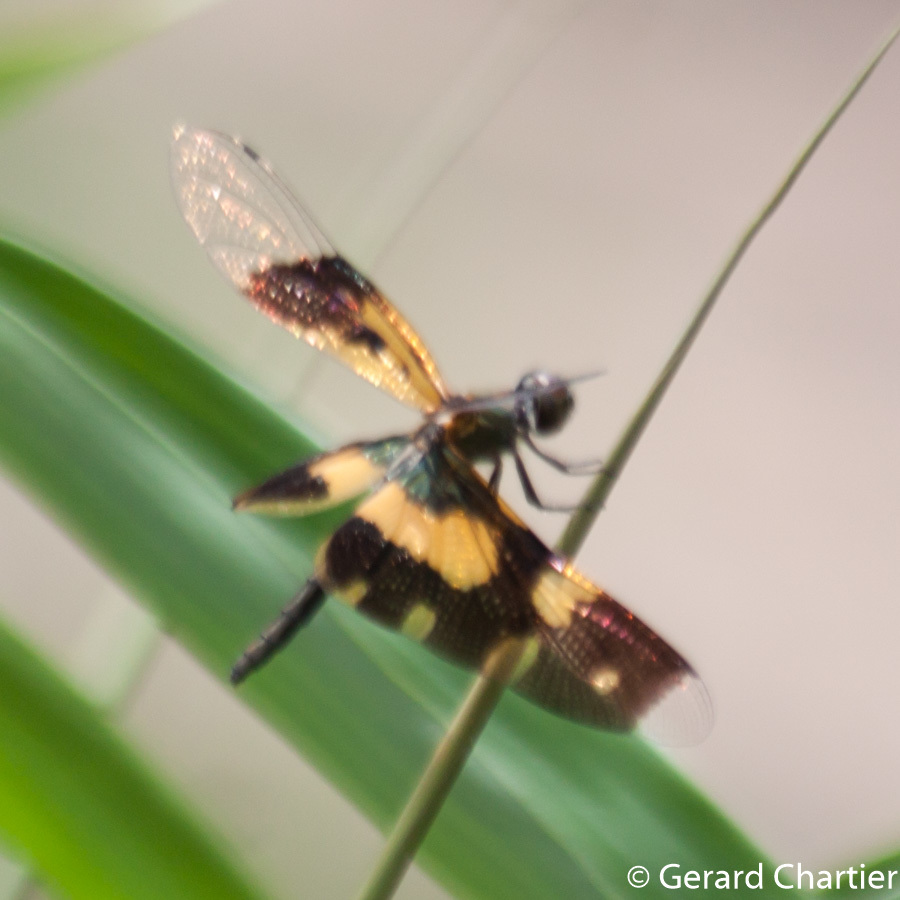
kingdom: Animalia
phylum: Arthropoda
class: Insecta
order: Odonata
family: Libellulidae
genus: Rhyothemis
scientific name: Rhyothemis variegata
